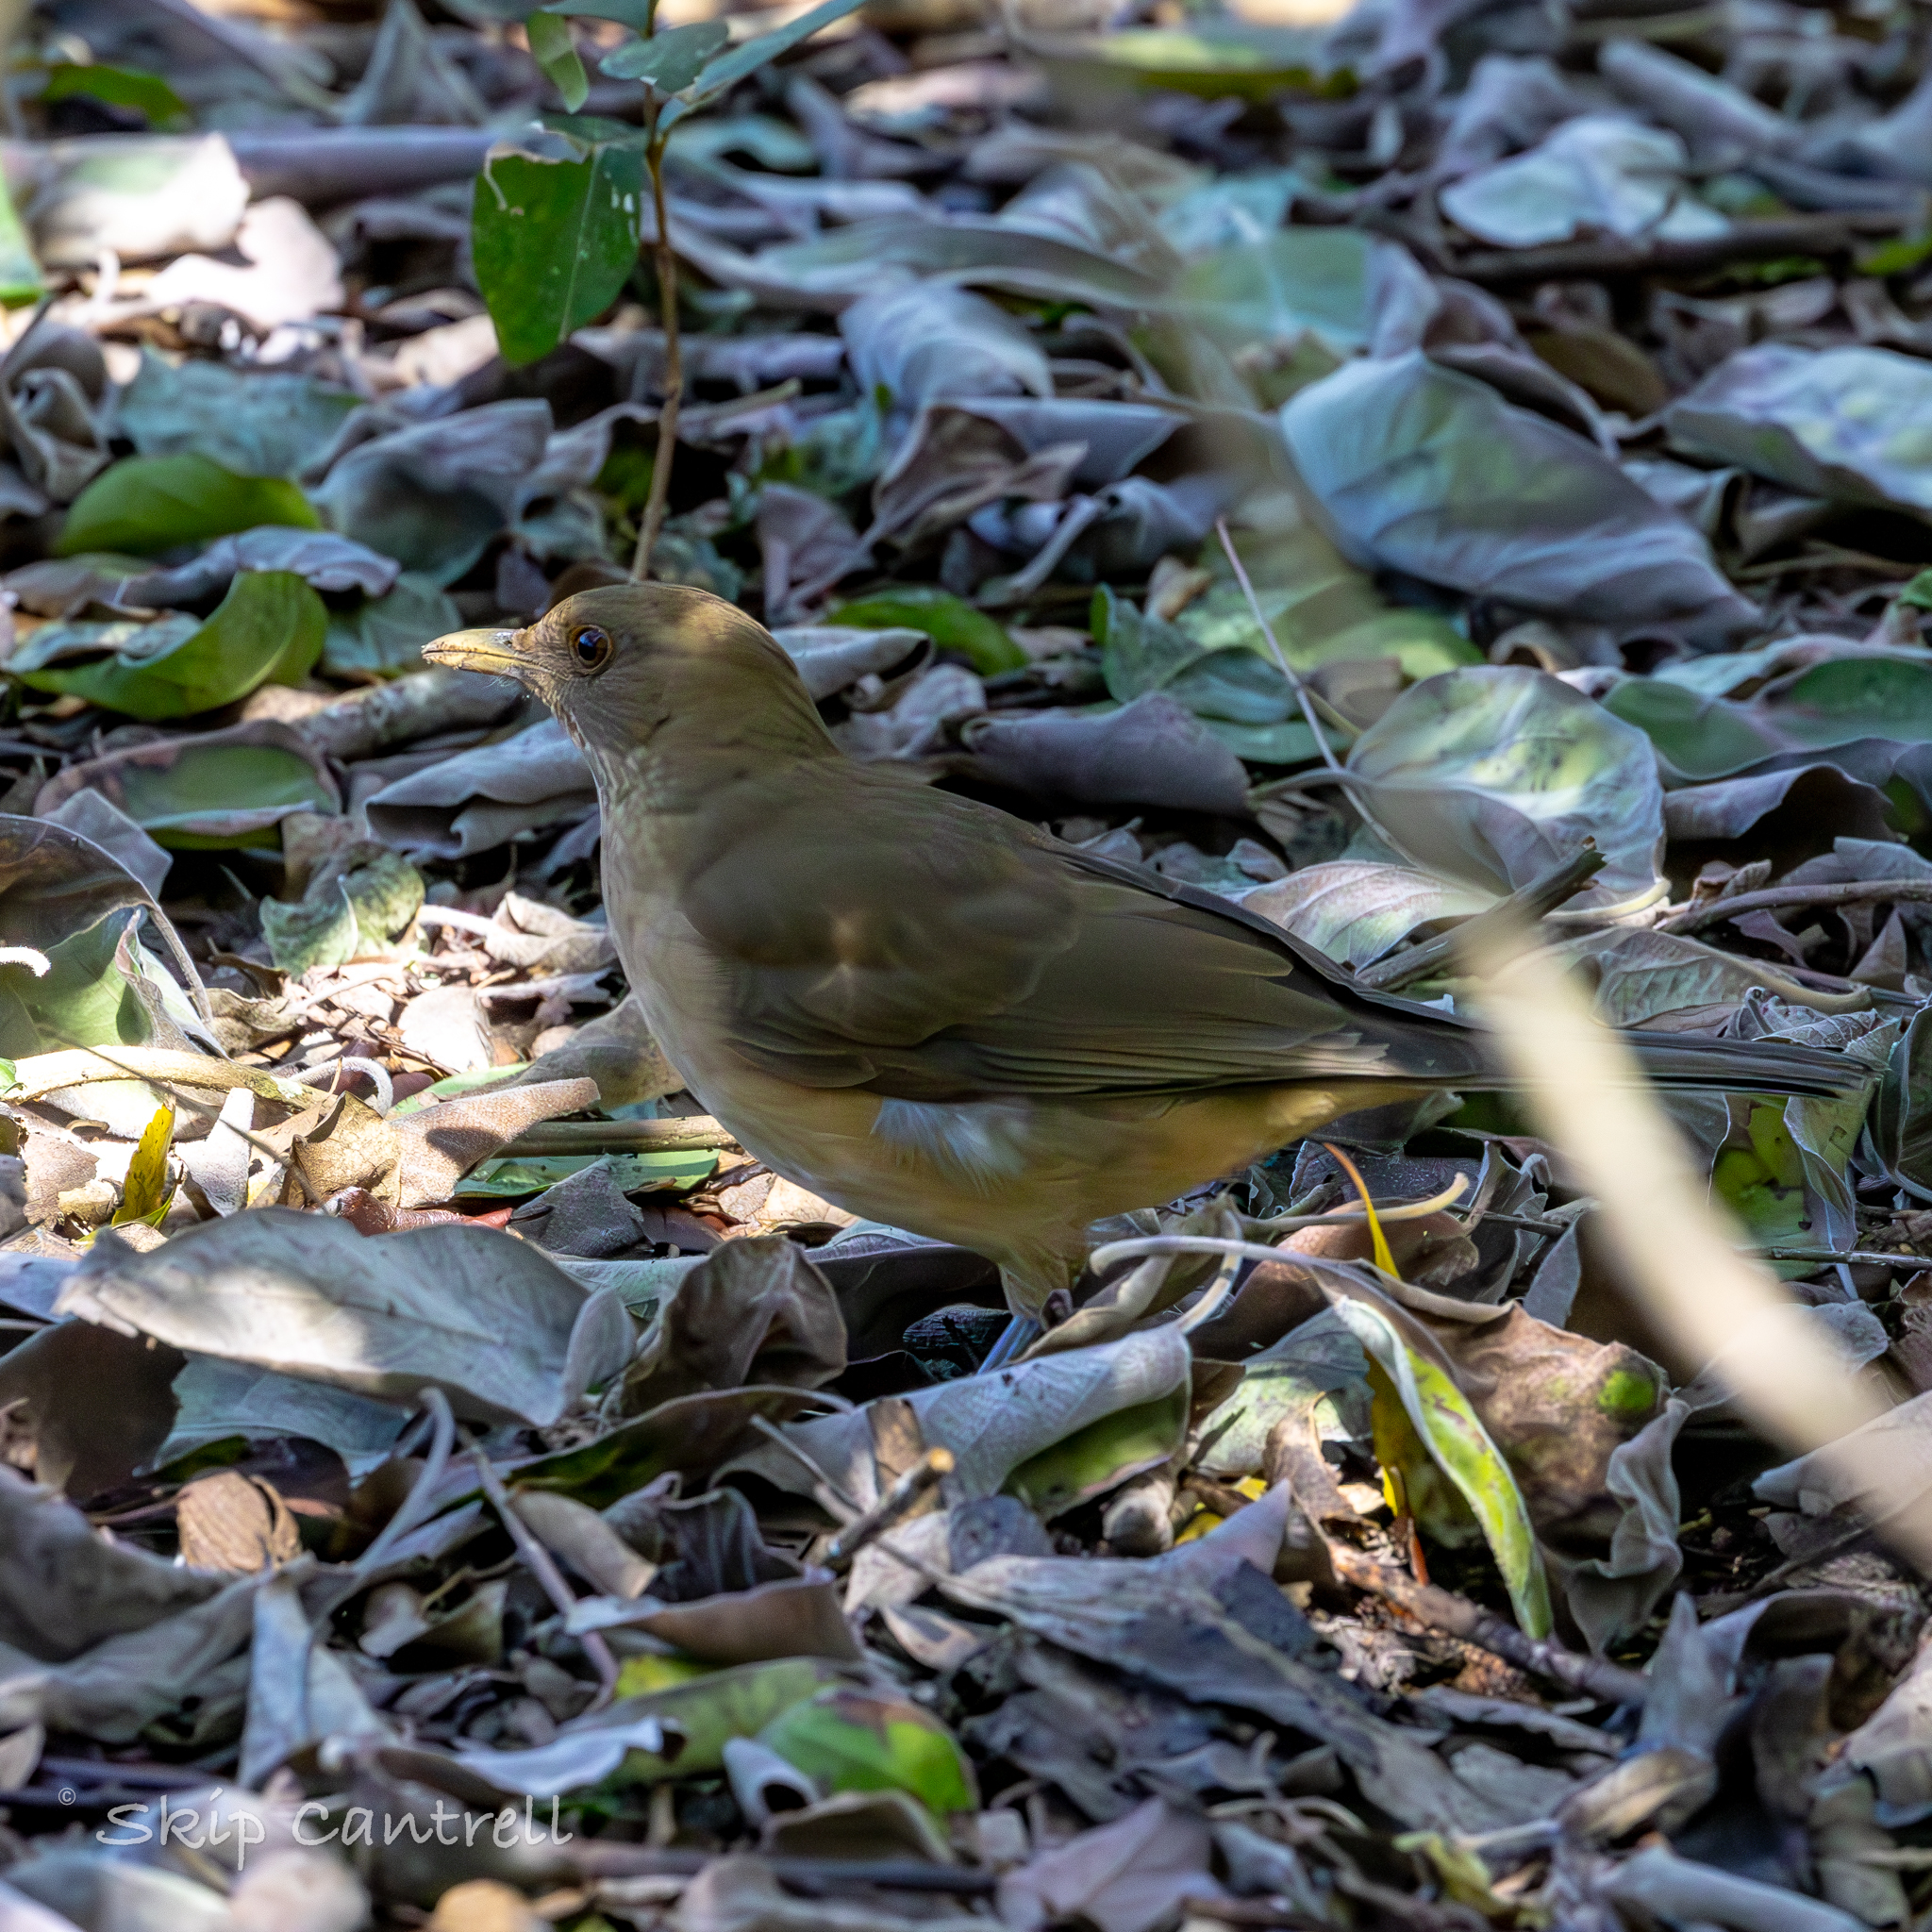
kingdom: Animalia
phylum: Chordata
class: Aves
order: Passeriformes
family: Turdidae
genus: Turdus
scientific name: Turdus grayi
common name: Clay-colored thrush
